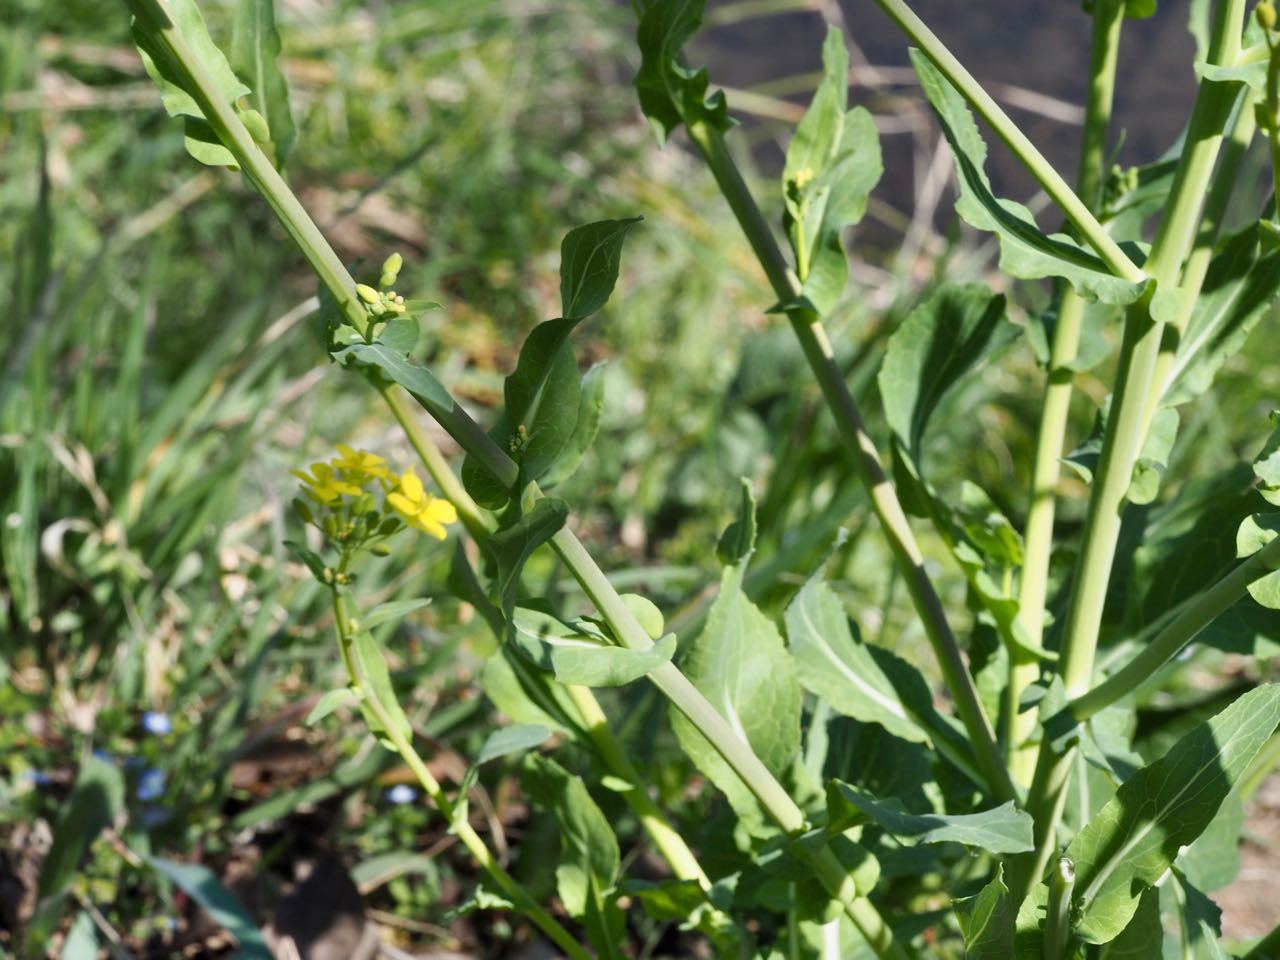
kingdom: Plantae
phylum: Tracheophyta
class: Magnoliopsida
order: Brassicales
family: Brassicaceae
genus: Brassica
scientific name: Brassica napus
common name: Rape
